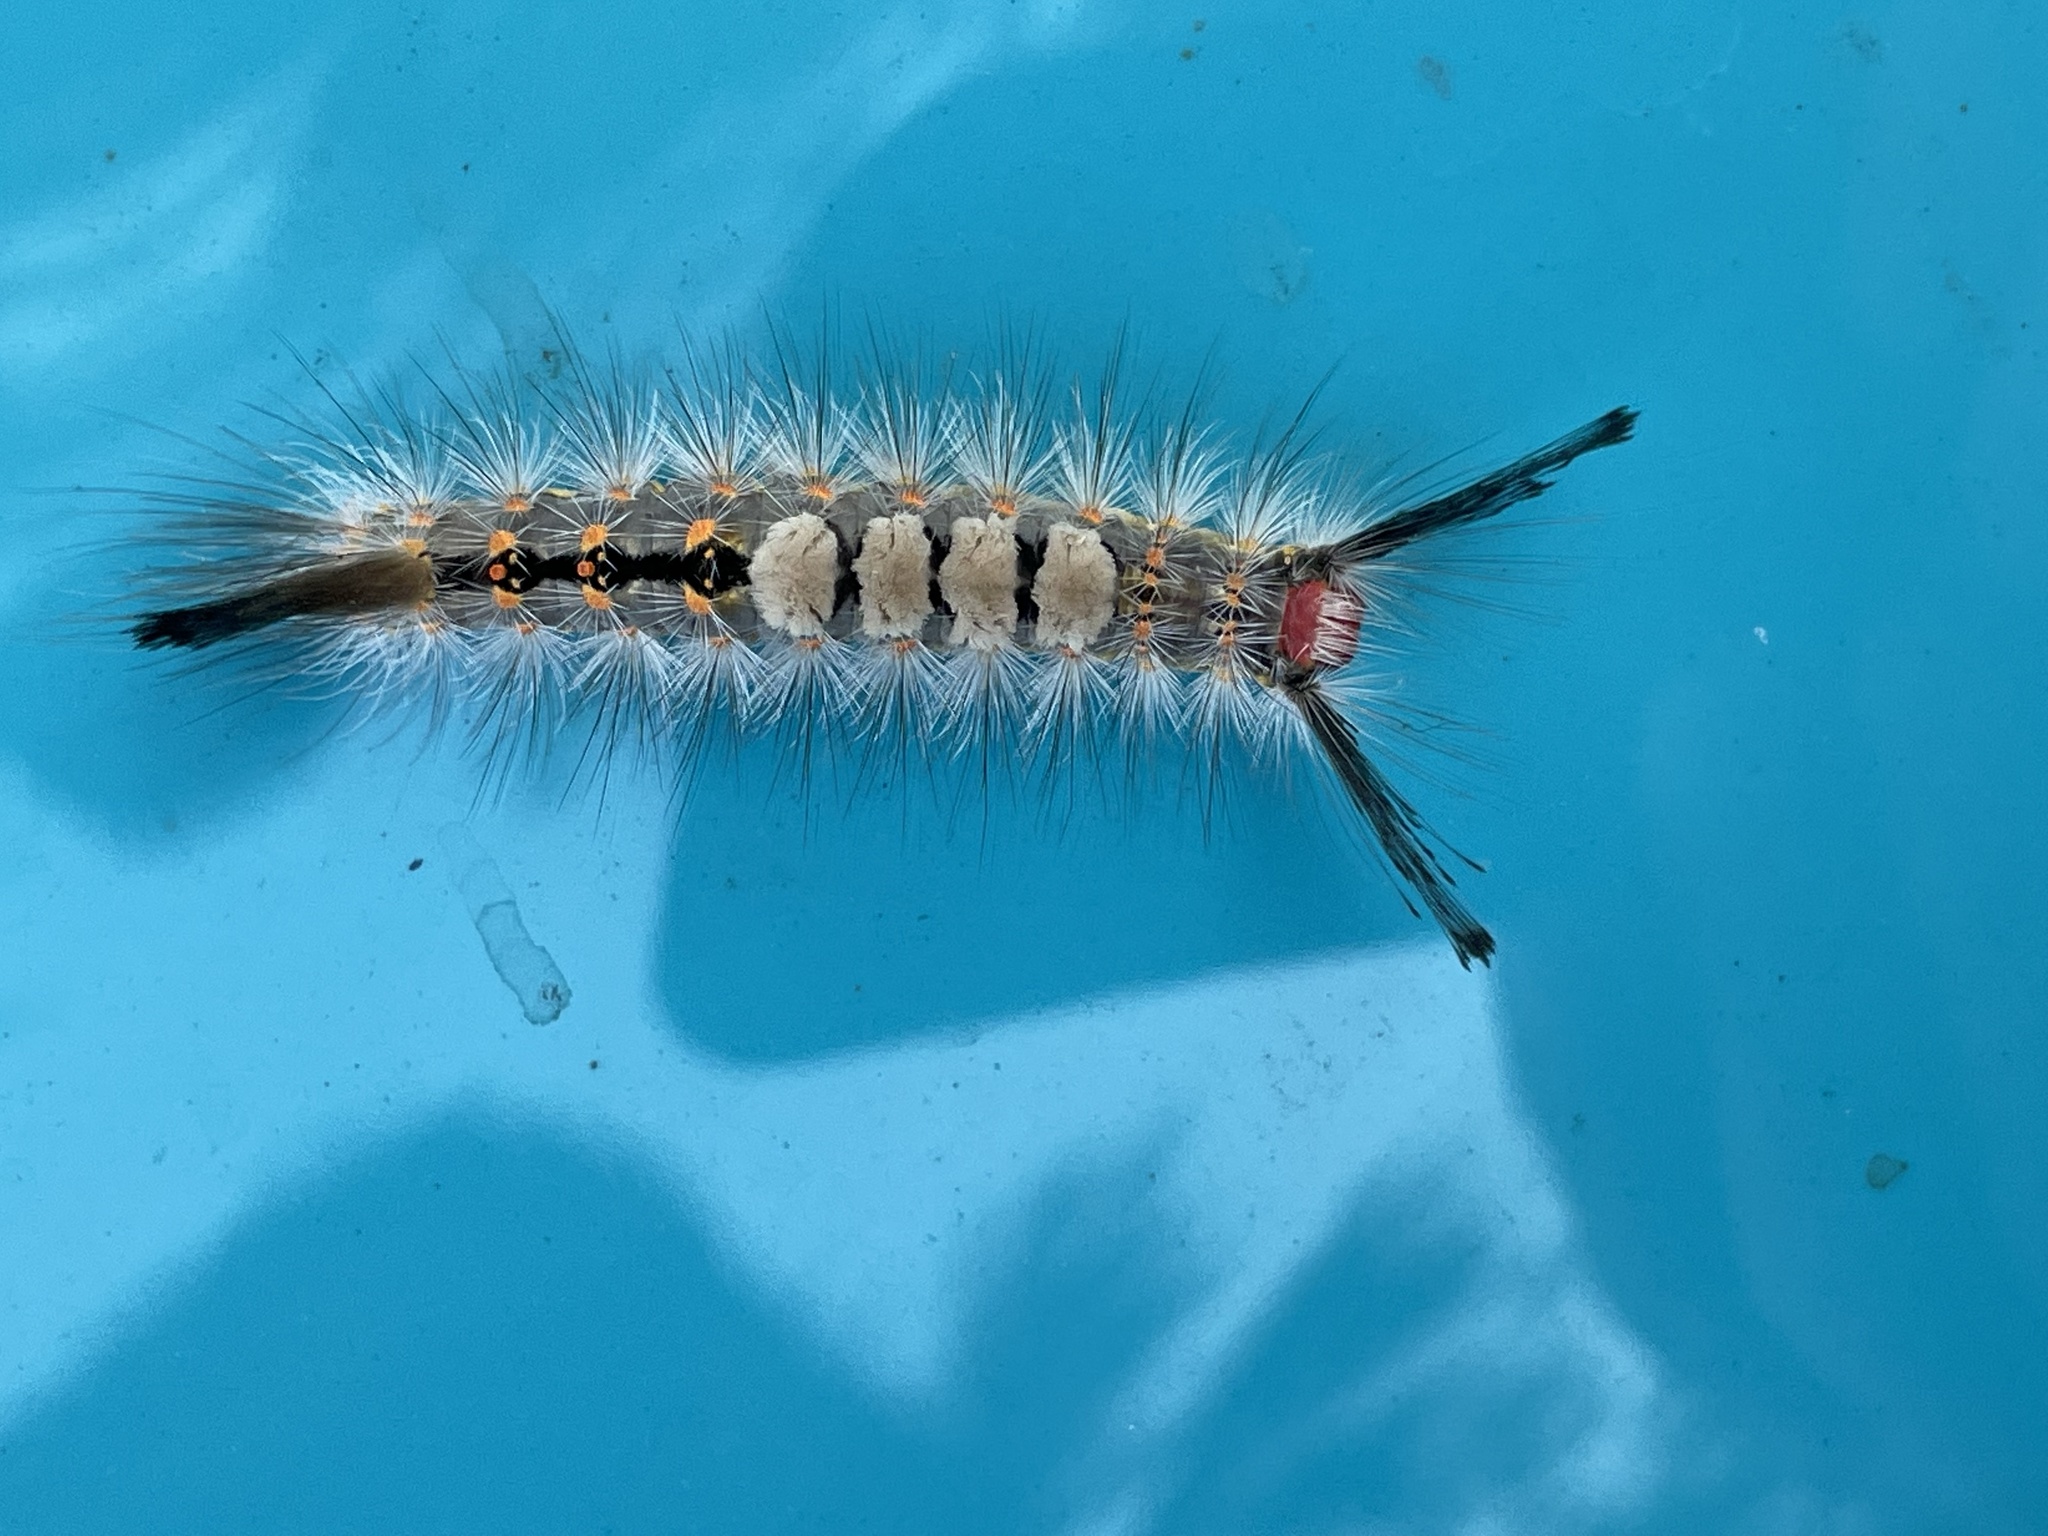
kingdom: Animalia
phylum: Arthropoda
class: Insecta
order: Lepidoptera
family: Erebidae
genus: Orgyia
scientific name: Orgyia detrita
